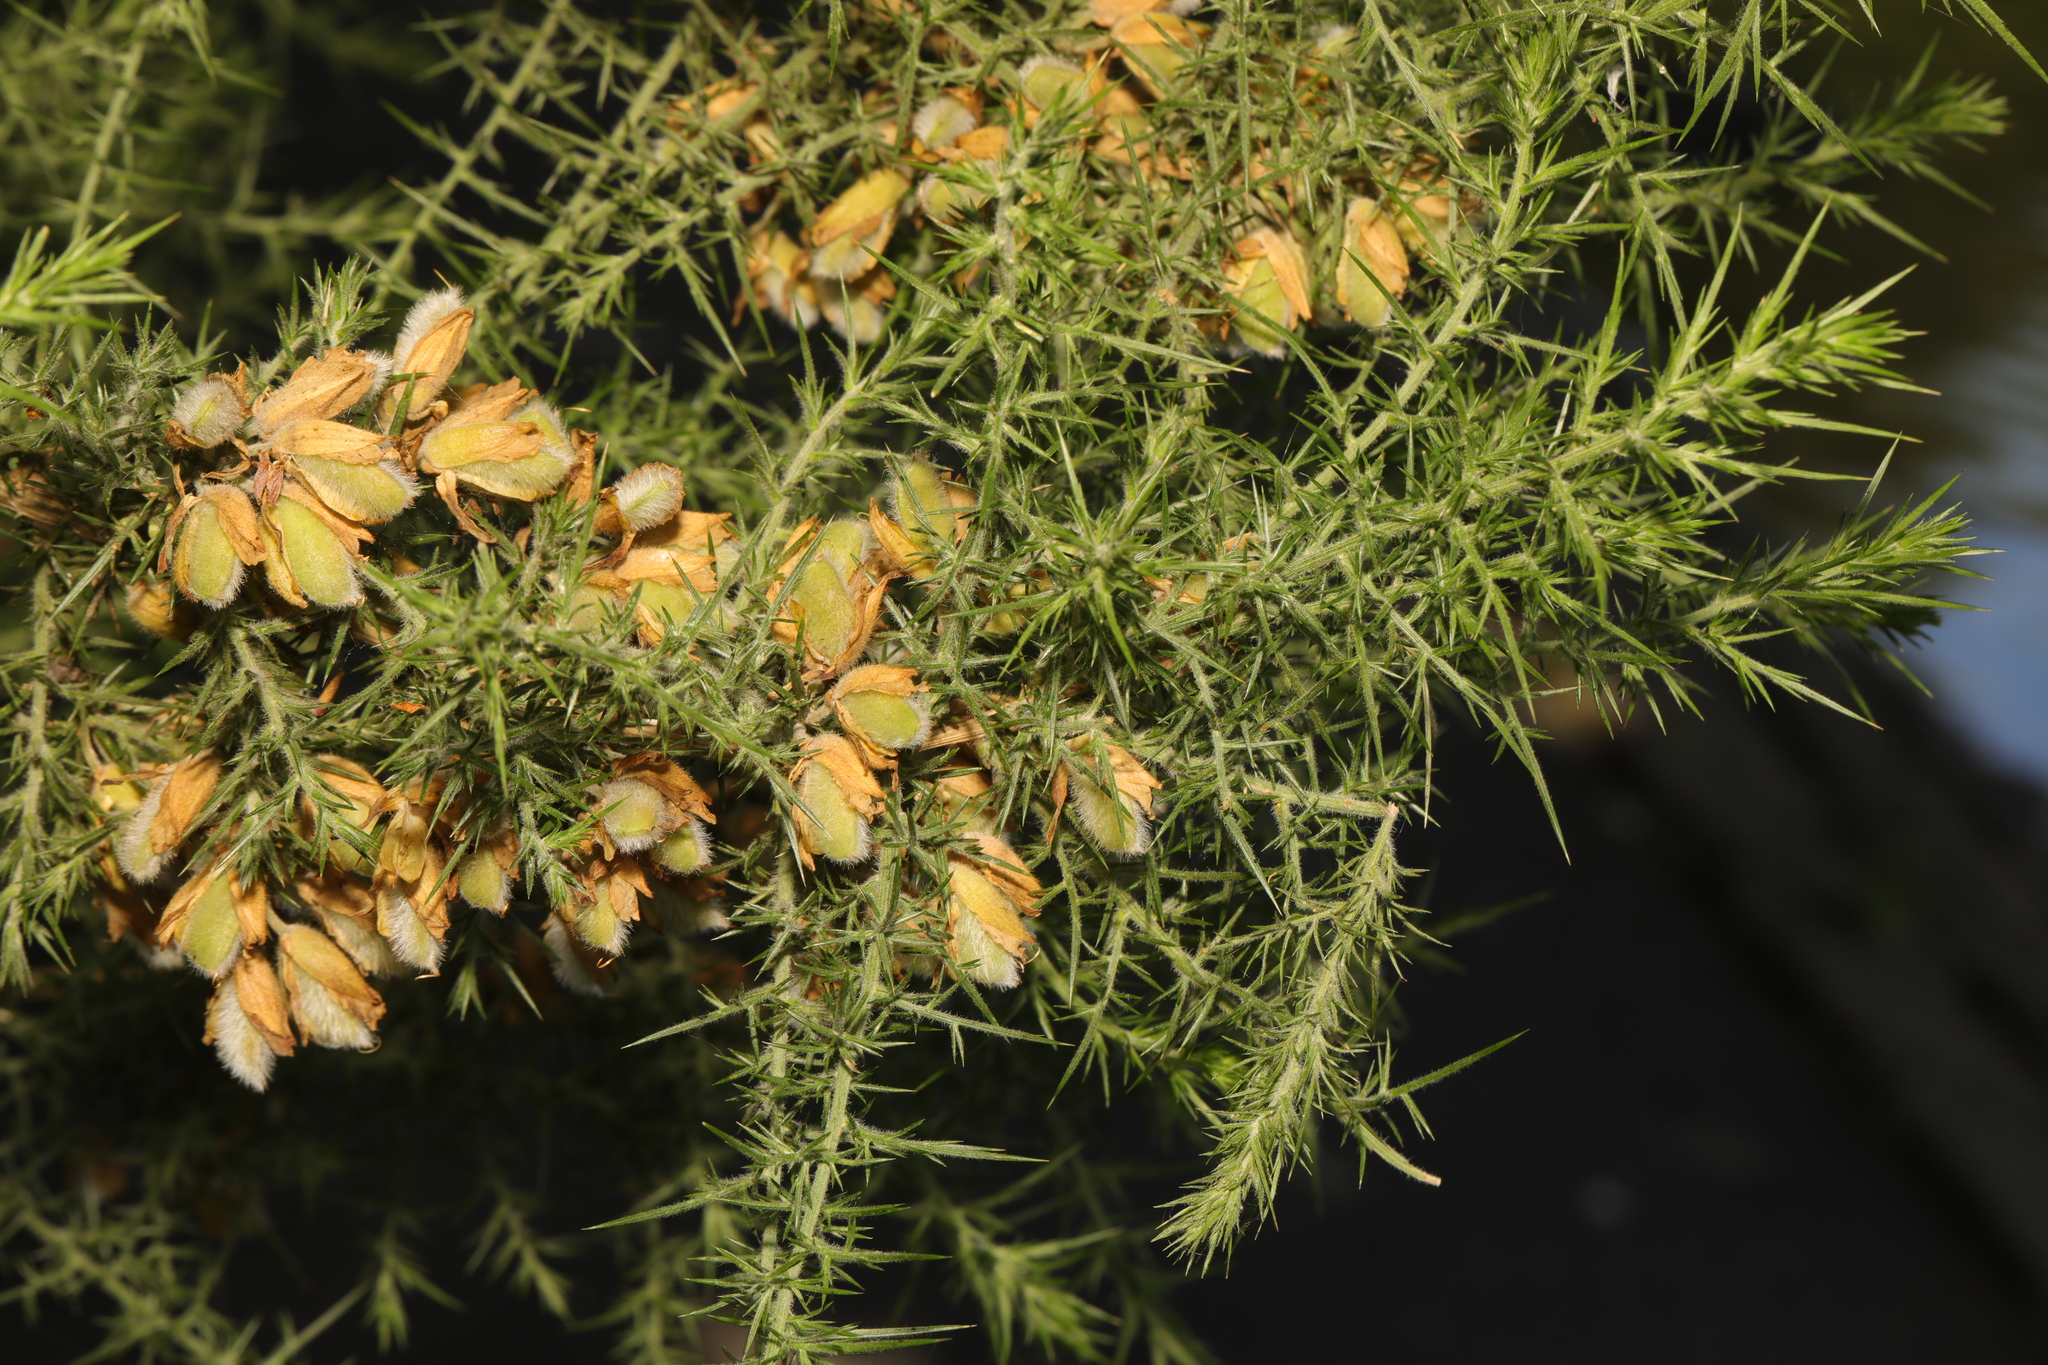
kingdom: Plantae
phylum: Tracheophyta
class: Magnoliopsida
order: Fabales
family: Fabaceae
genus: Ulex
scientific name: Ulex europaeus
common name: Common gorse
